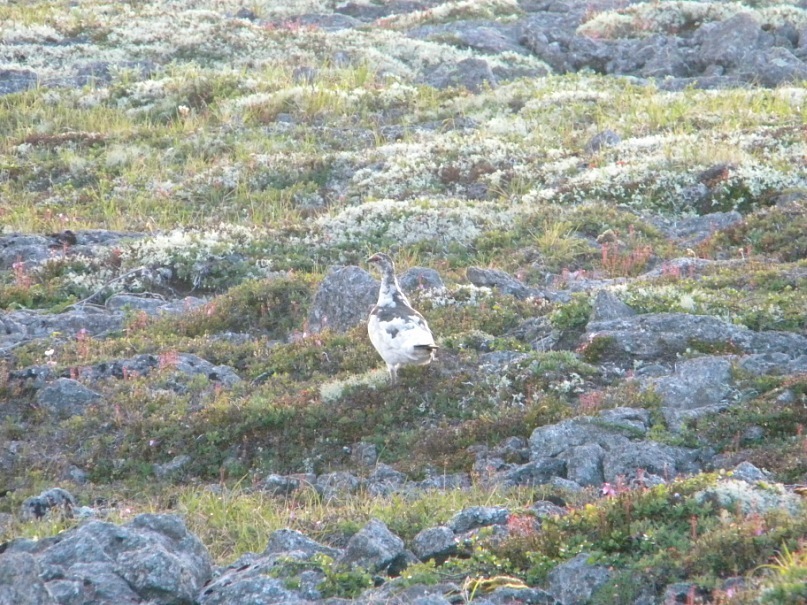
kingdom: Animalia
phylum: Chordata
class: Aves
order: Galliformes
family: Phasianidae
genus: Lagopus
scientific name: Lagopus muta
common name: Rock ptarmigan
